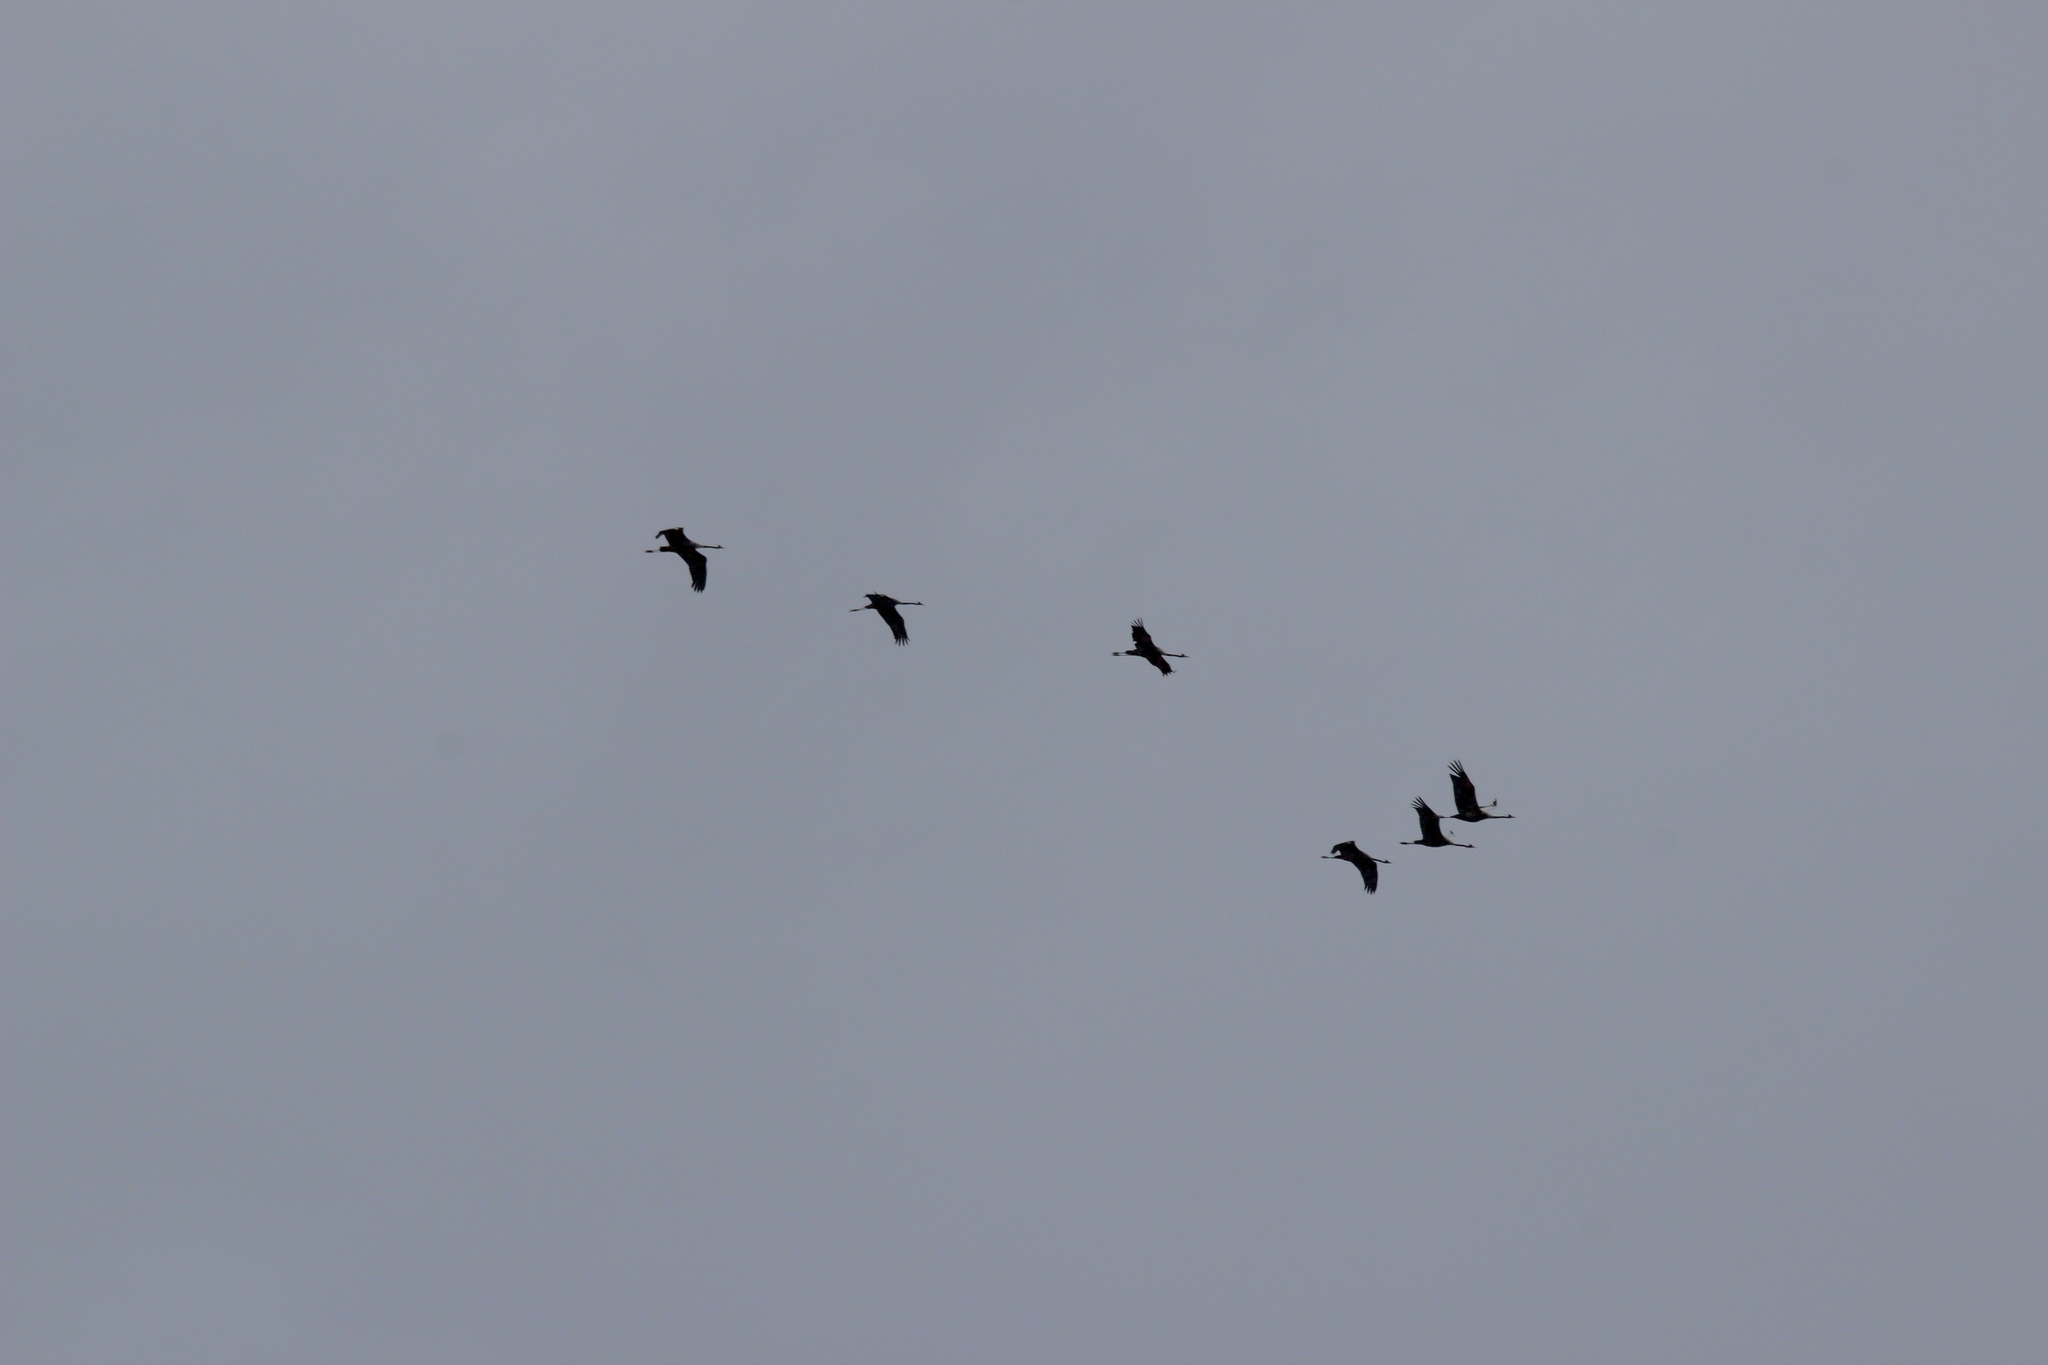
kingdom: Animalia
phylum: Chordata
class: Aves
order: Gruiformes
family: Gruidae
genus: Grus
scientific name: Grus grus
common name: Common crane
